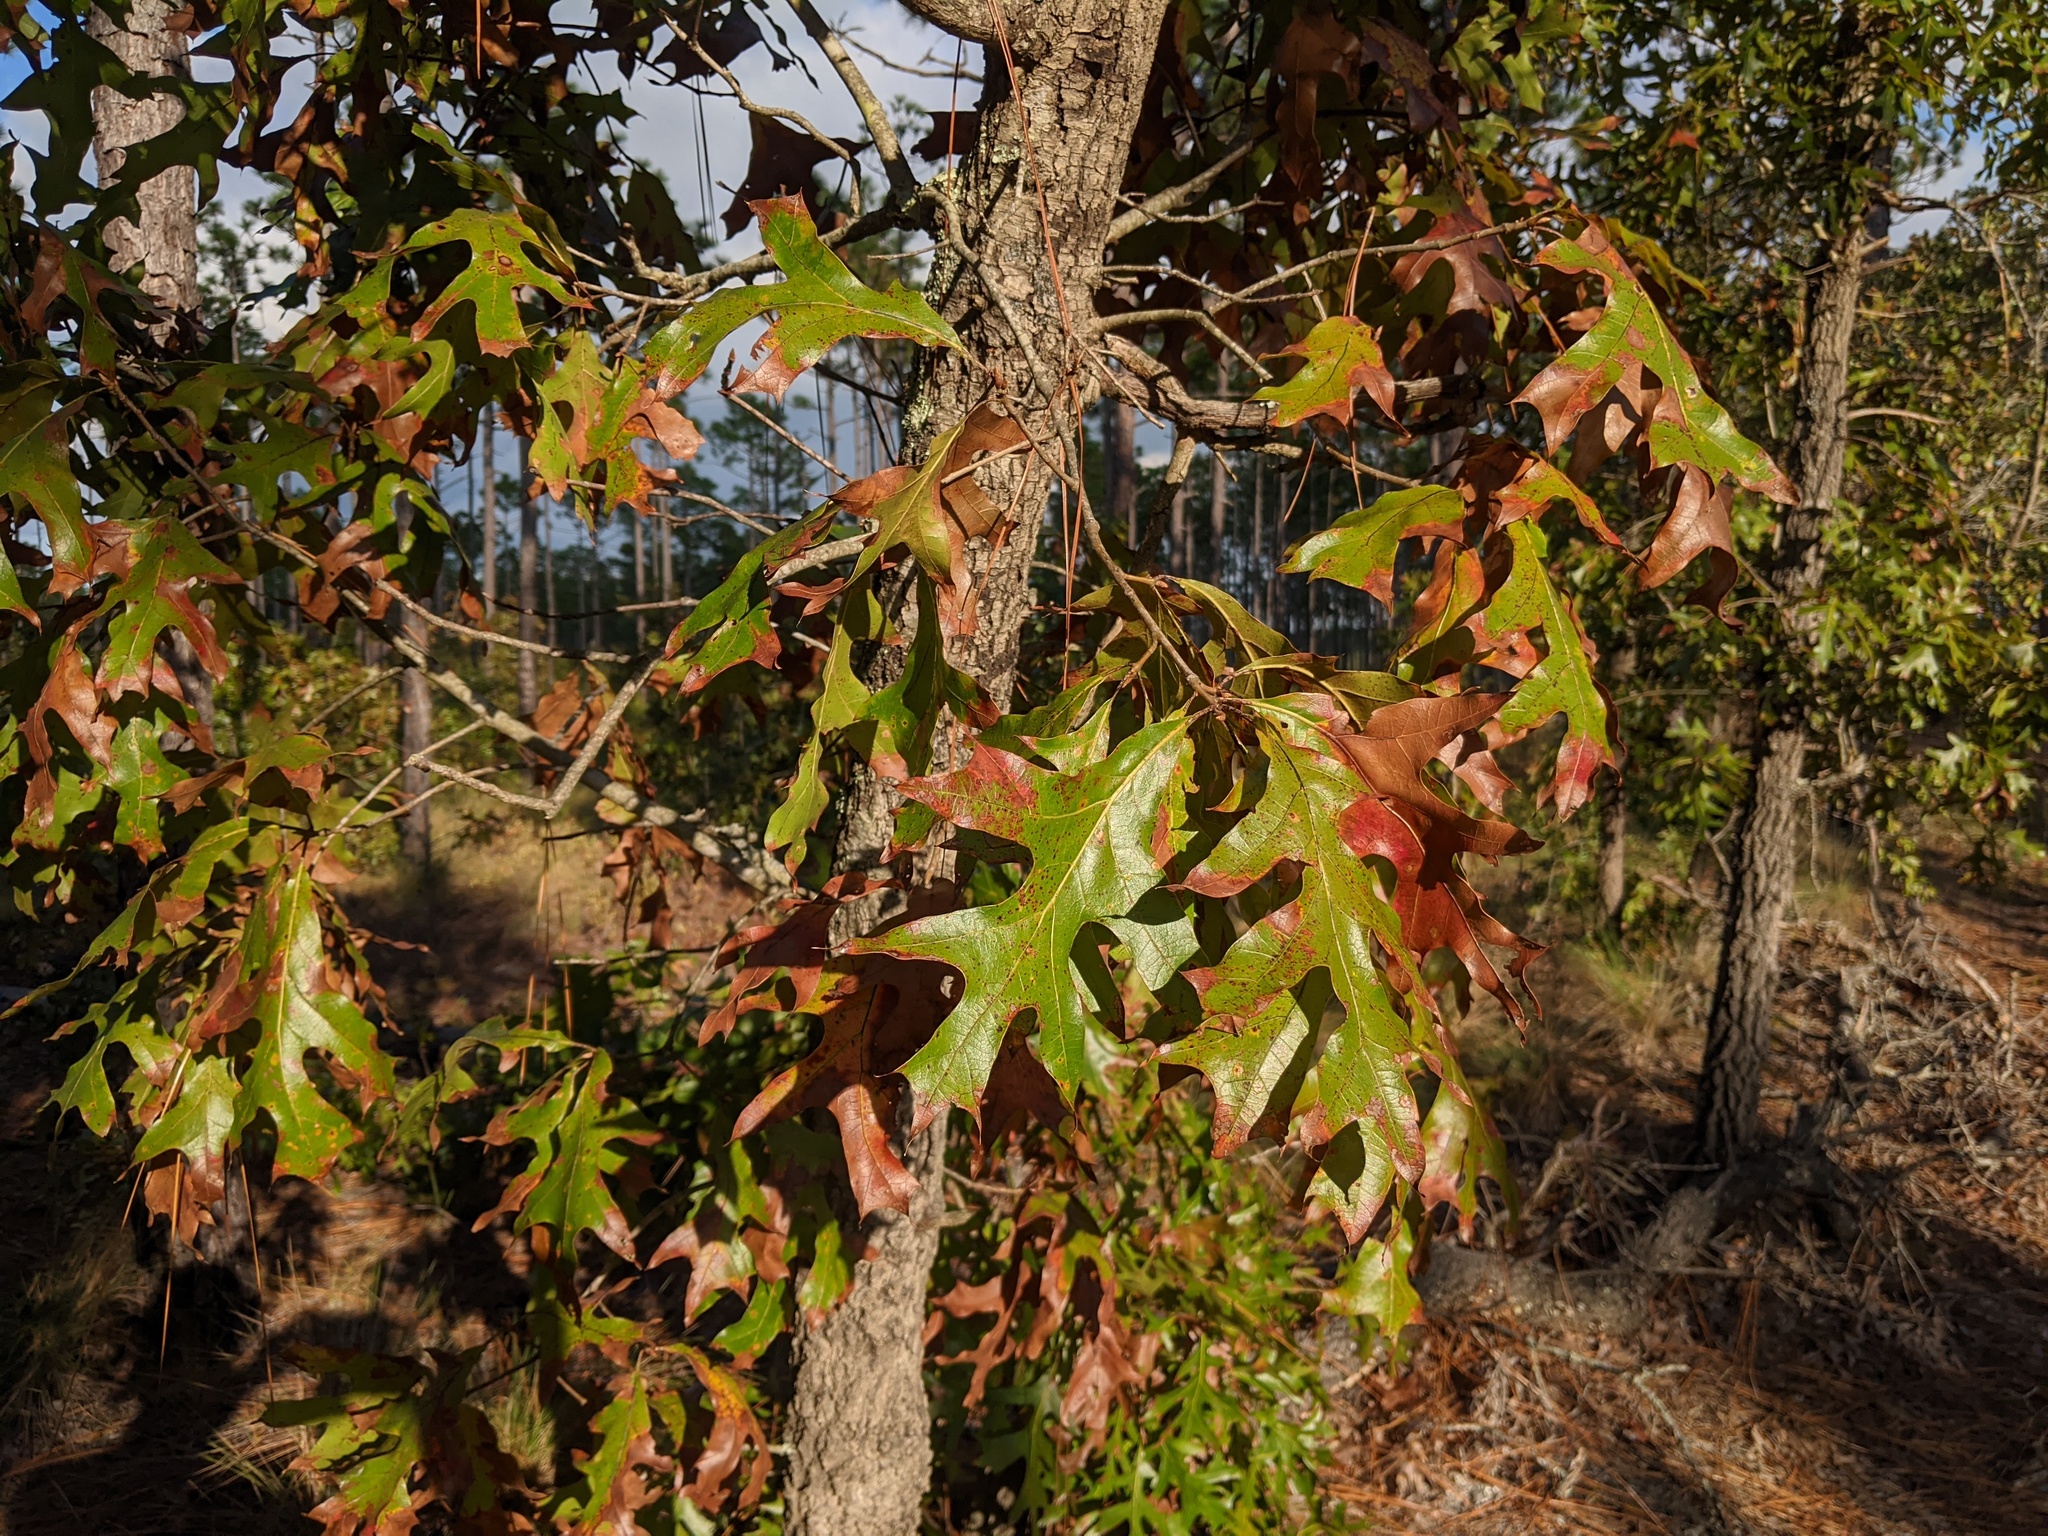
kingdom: Plantae
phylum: Tracheophyta
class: Magnoliopsida
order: Fagales
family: Fagaceae
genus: Quercus
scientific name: Quercus laevis
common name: Turkey oak
